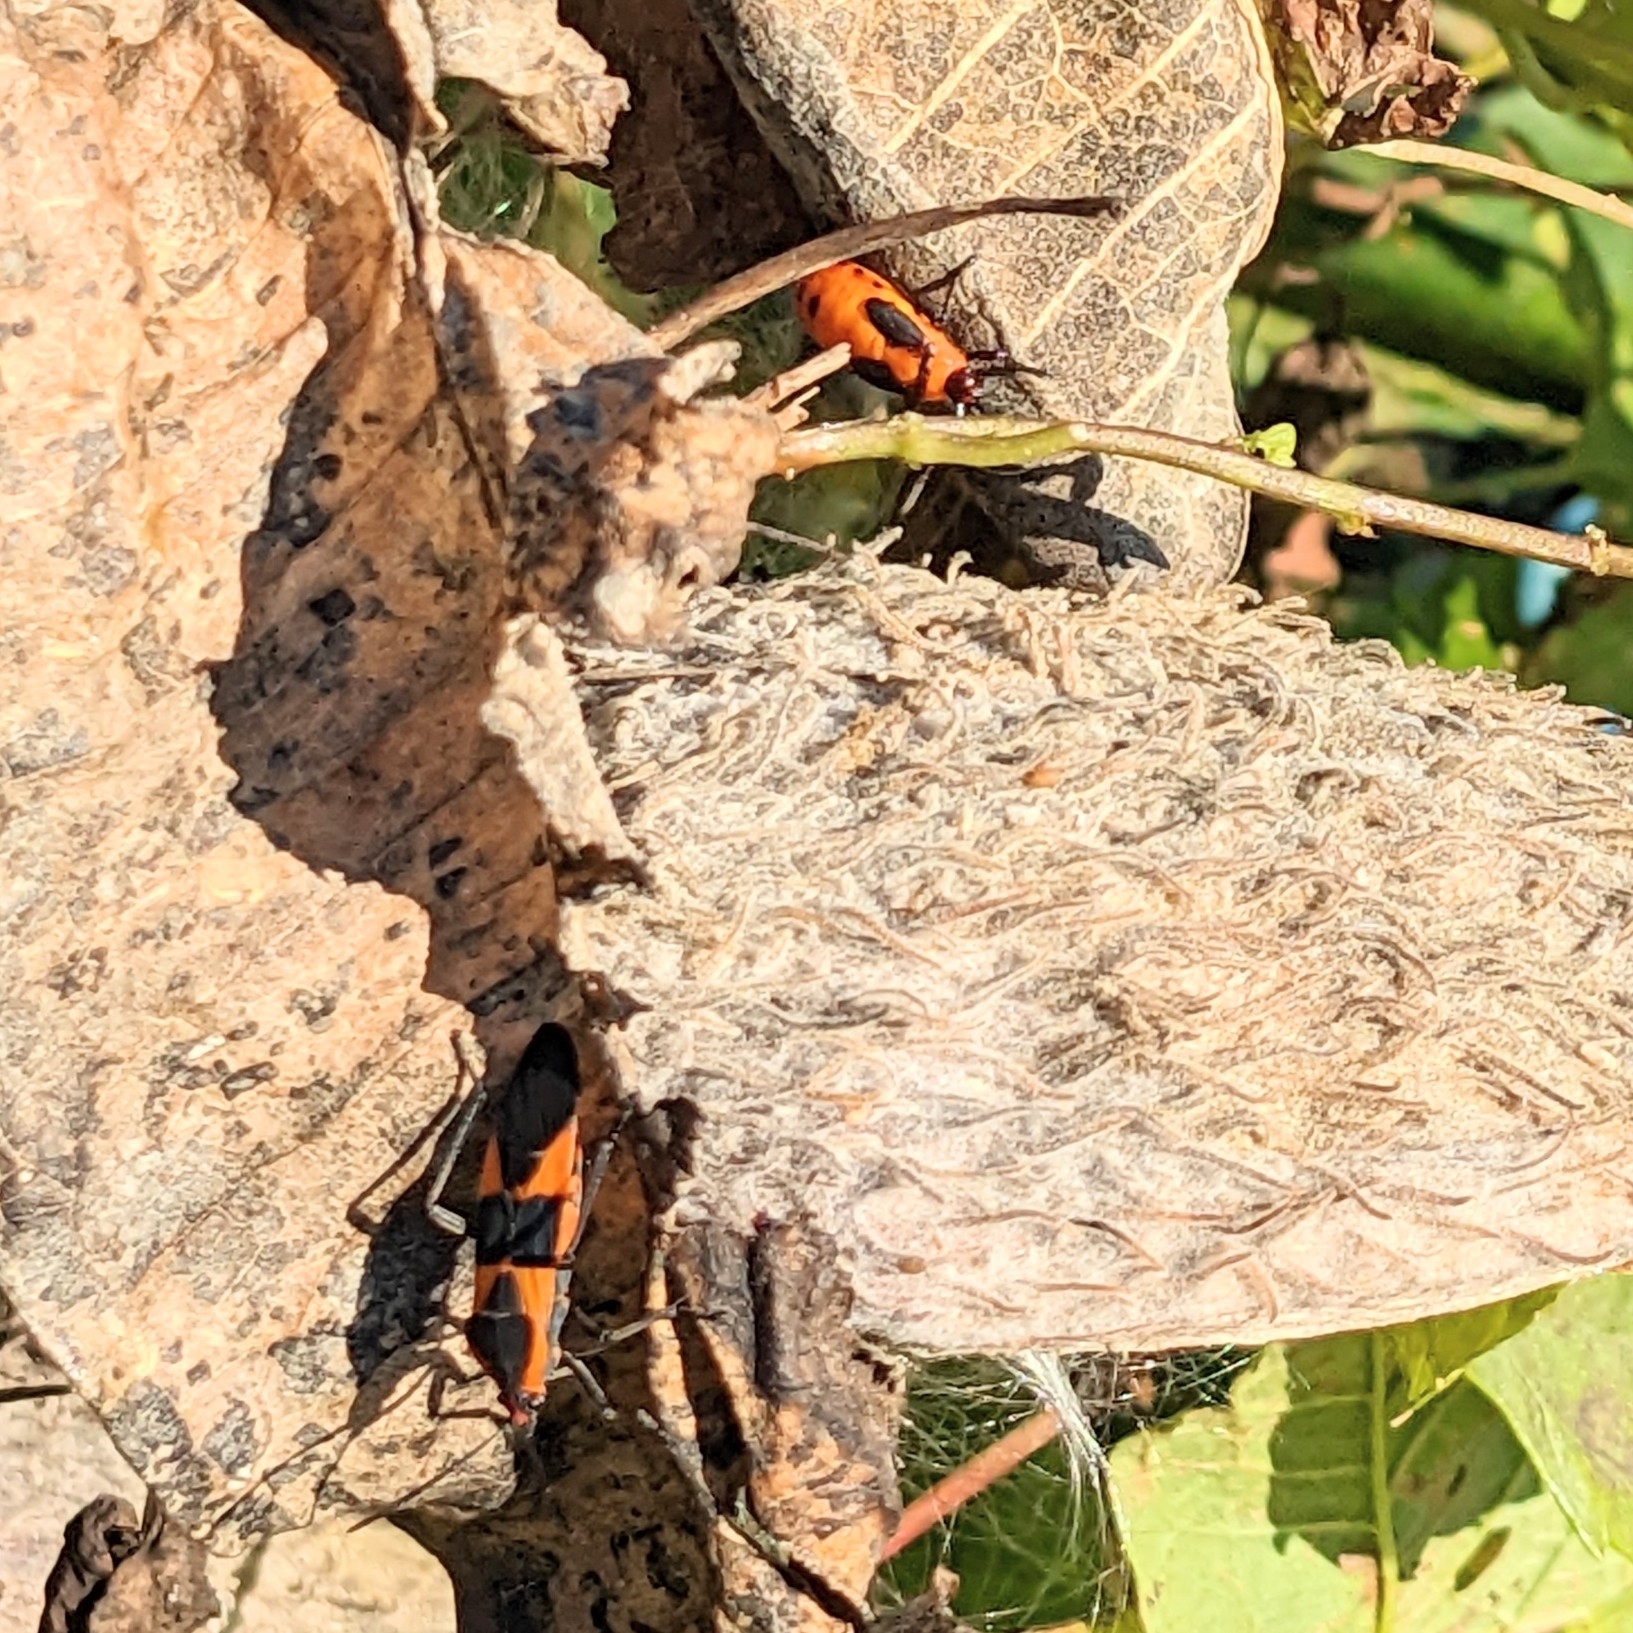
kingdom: Animalia
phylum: Arthropoda
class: Insecta
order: Hemiptera
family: Lygaeidae
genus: Oncopeltus
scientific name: Oncopeltus fasciatus
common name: Large milkweed bug
